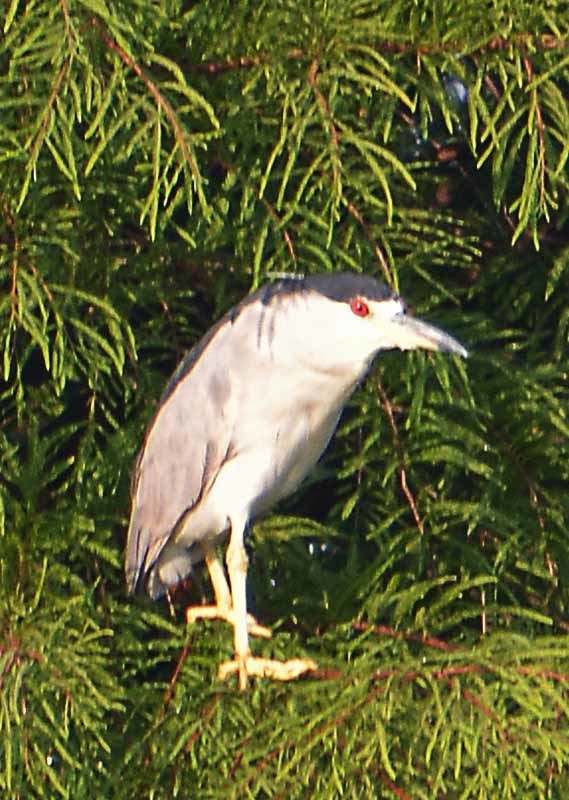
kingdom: Animalia
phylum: Chordata
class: Aves
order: Pelecaniformes
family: Ardeidae
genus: Nycticorax
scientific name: Nycticorax nycticorax
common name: Black-crowned night heron
